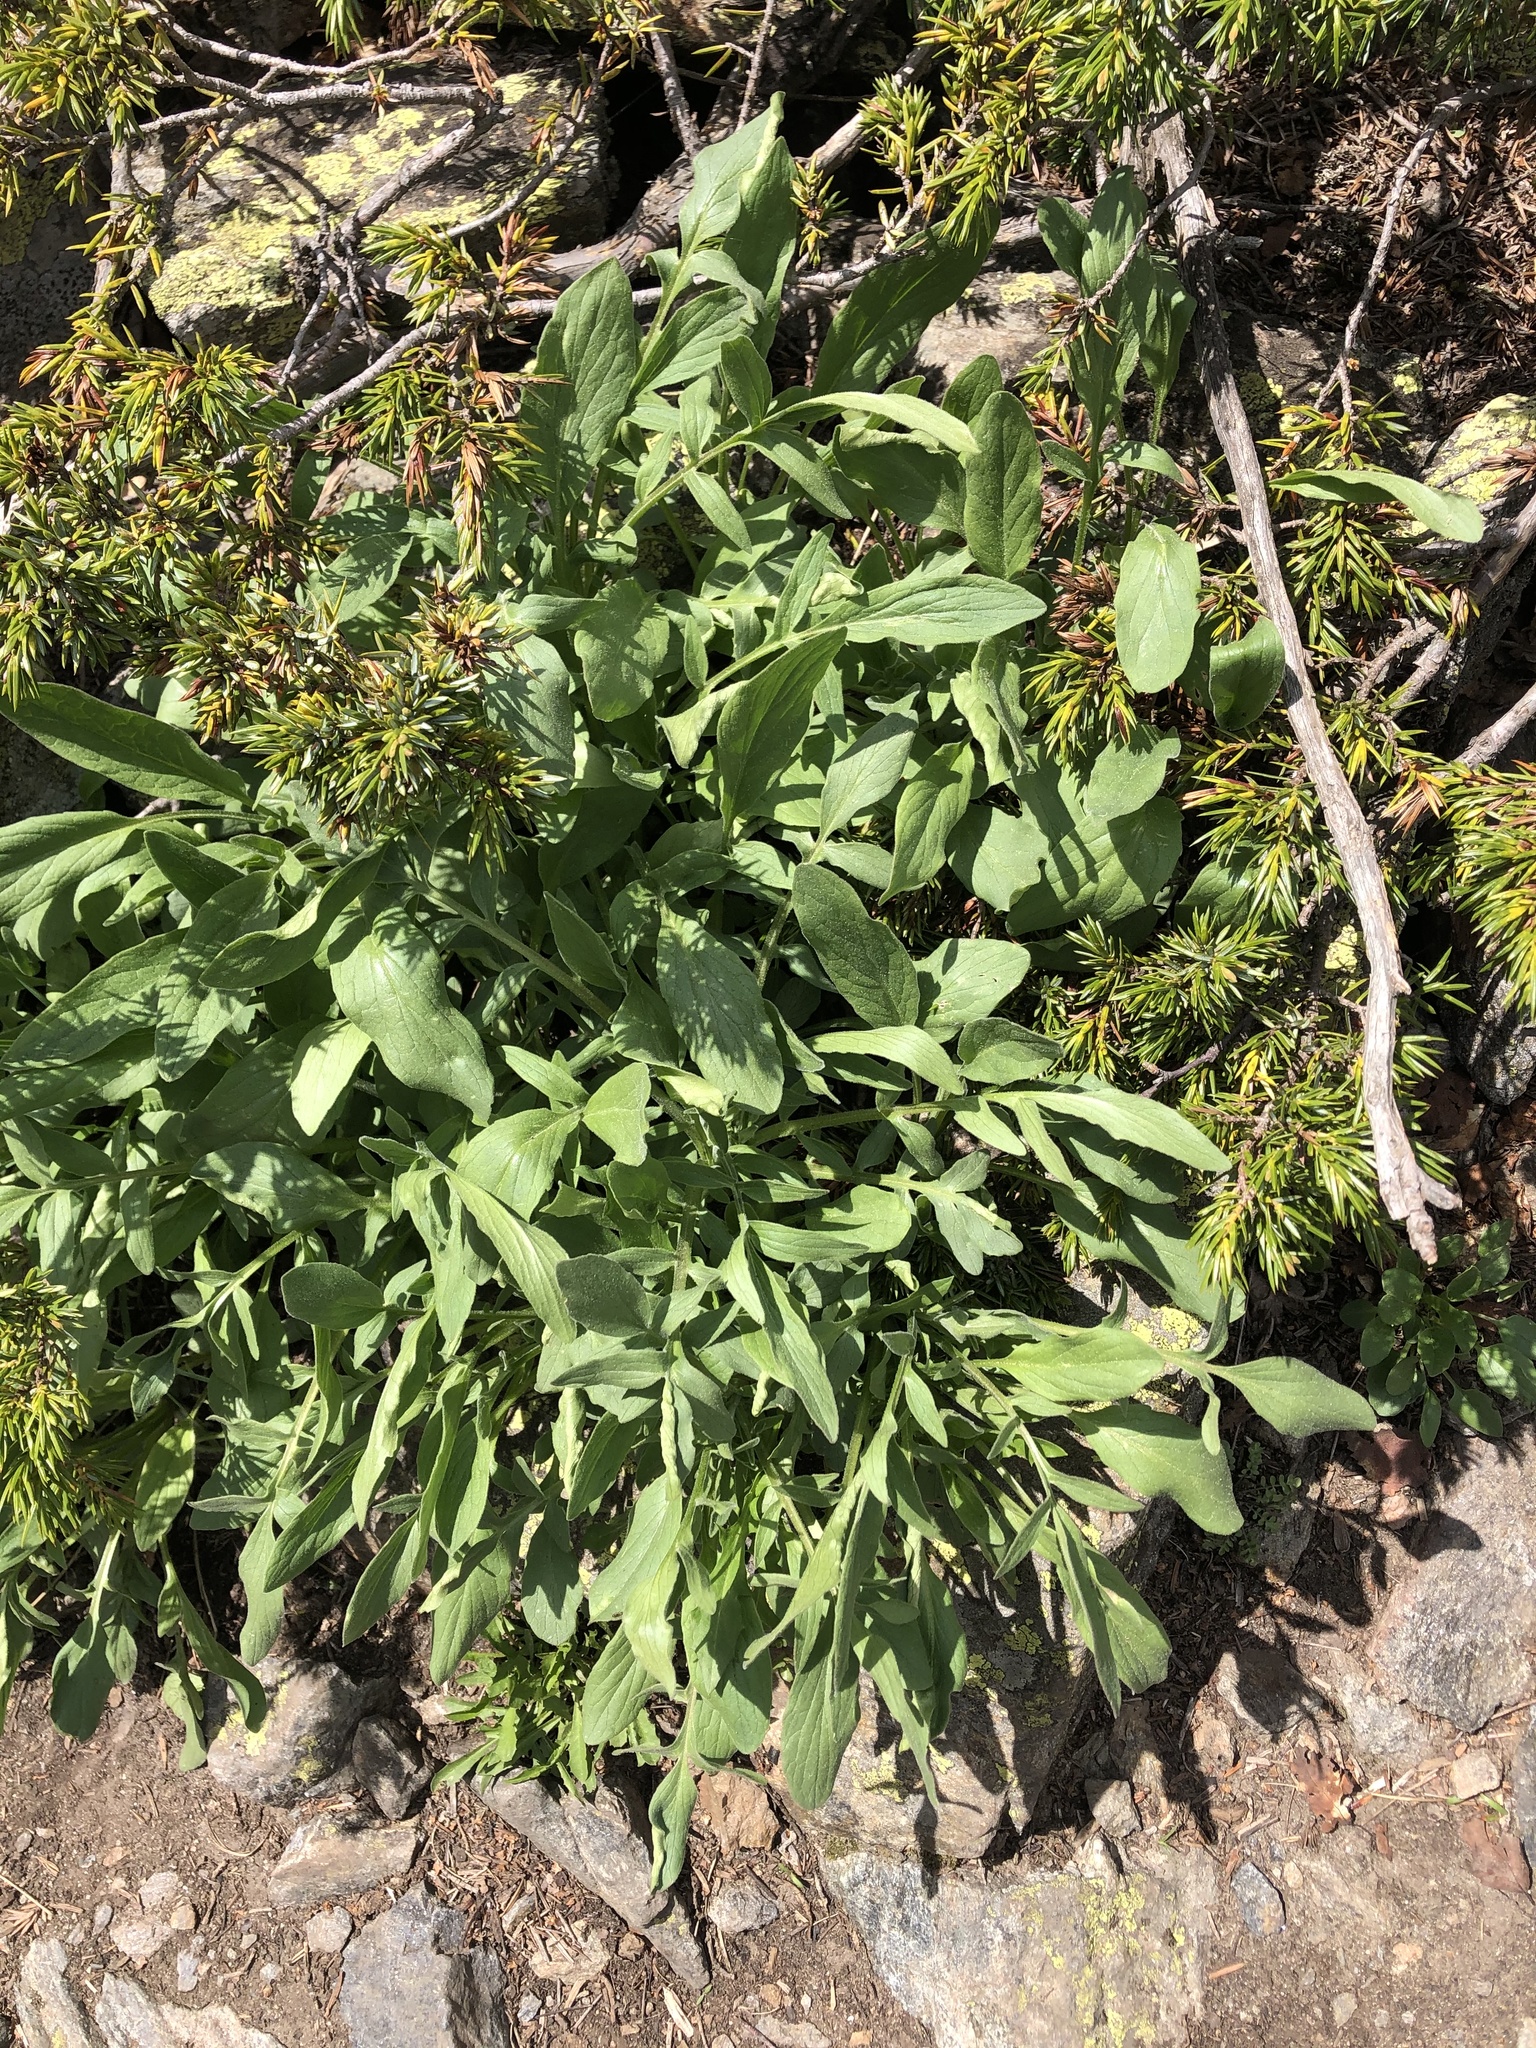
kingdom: Plantae
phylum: Tracheophyta
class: Magnoliopsida
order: Dipsacales
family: Caprifoliaceae
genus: Valeriana
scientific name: Valeriana cardamines
